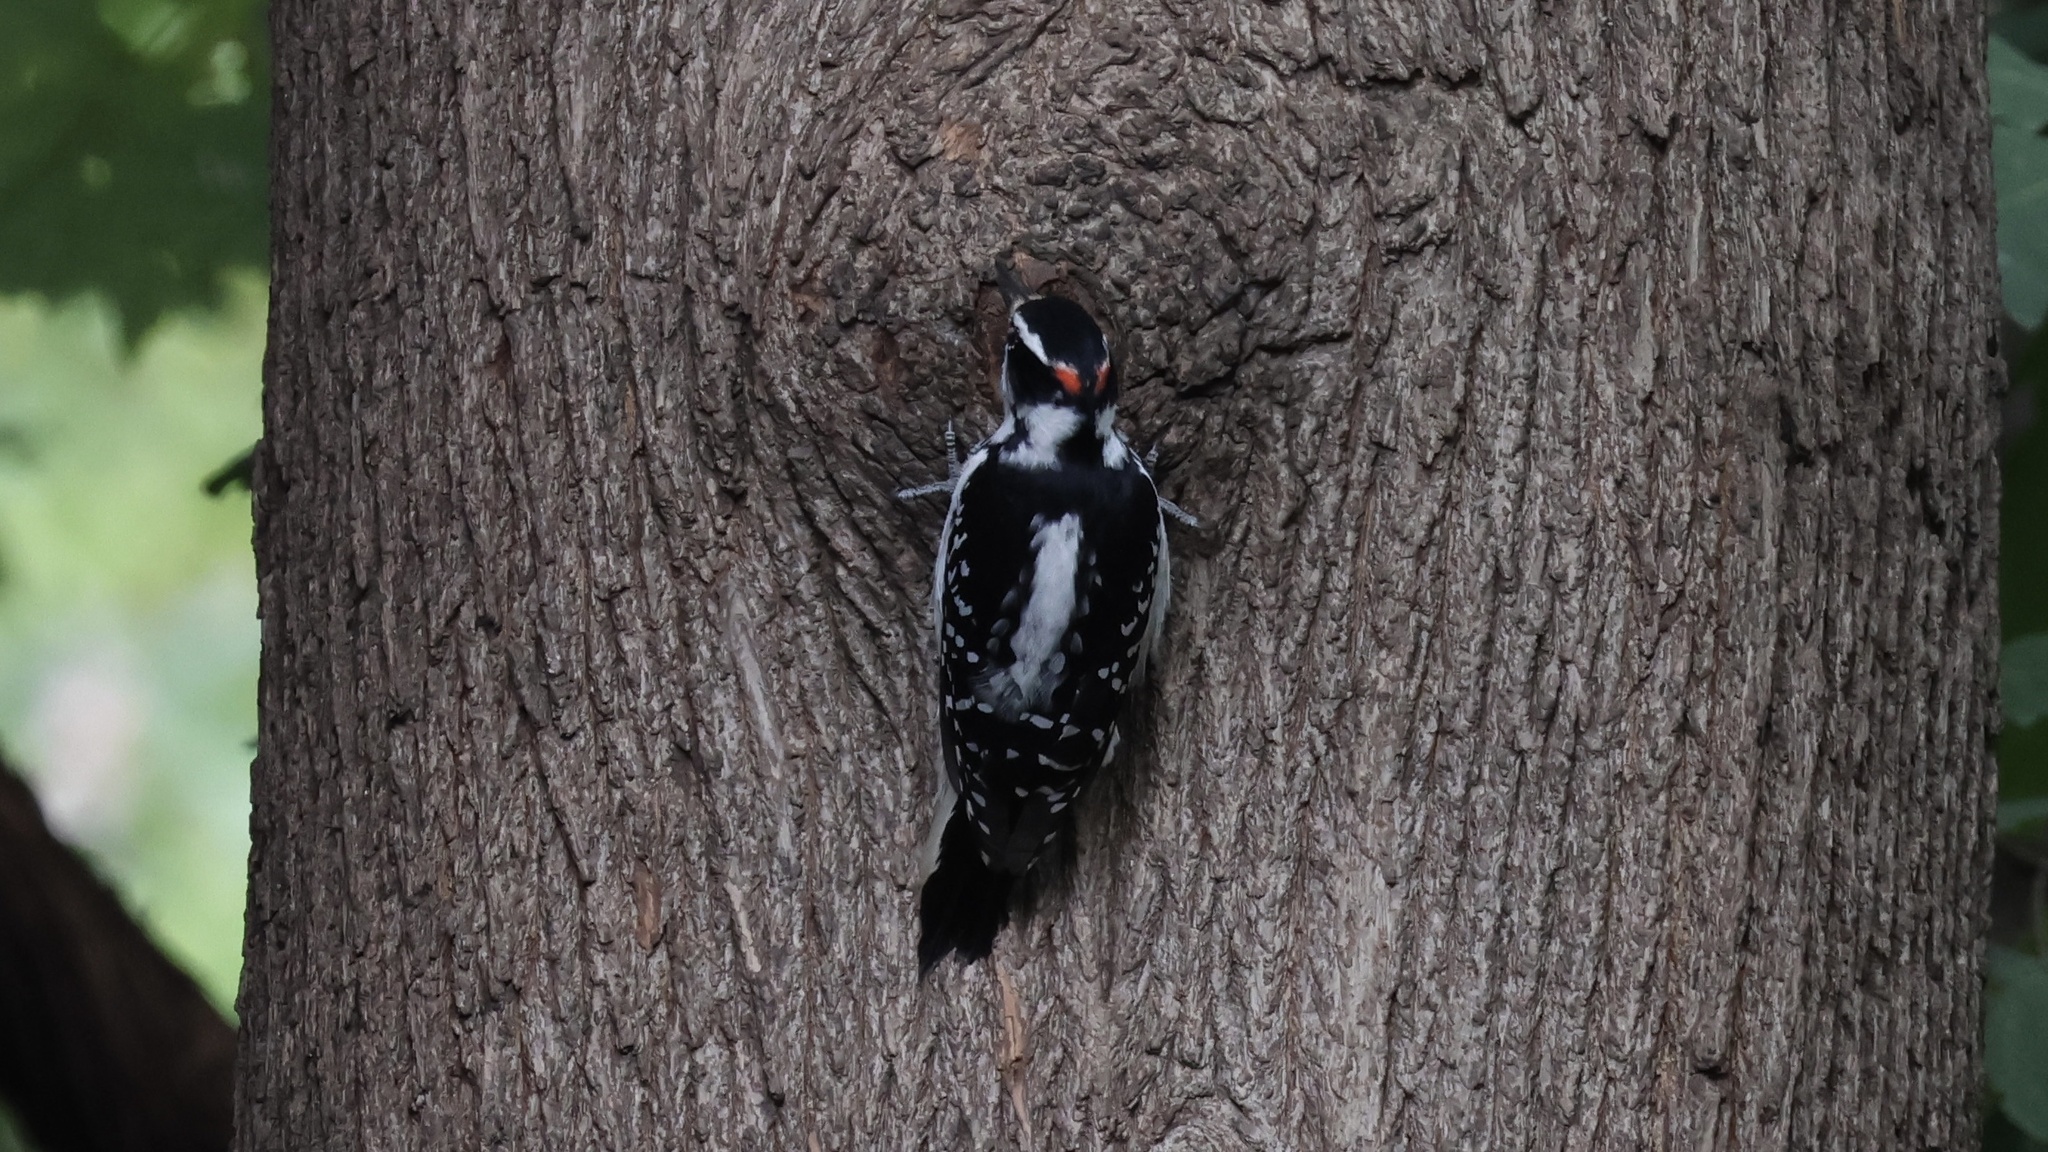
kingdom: Animalia
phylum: Chordata
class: Aves
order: Piciformes
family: Picidae
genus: Leuconotopicus
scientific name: Leuconotopicus villosus
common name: Hairy woodpecker
